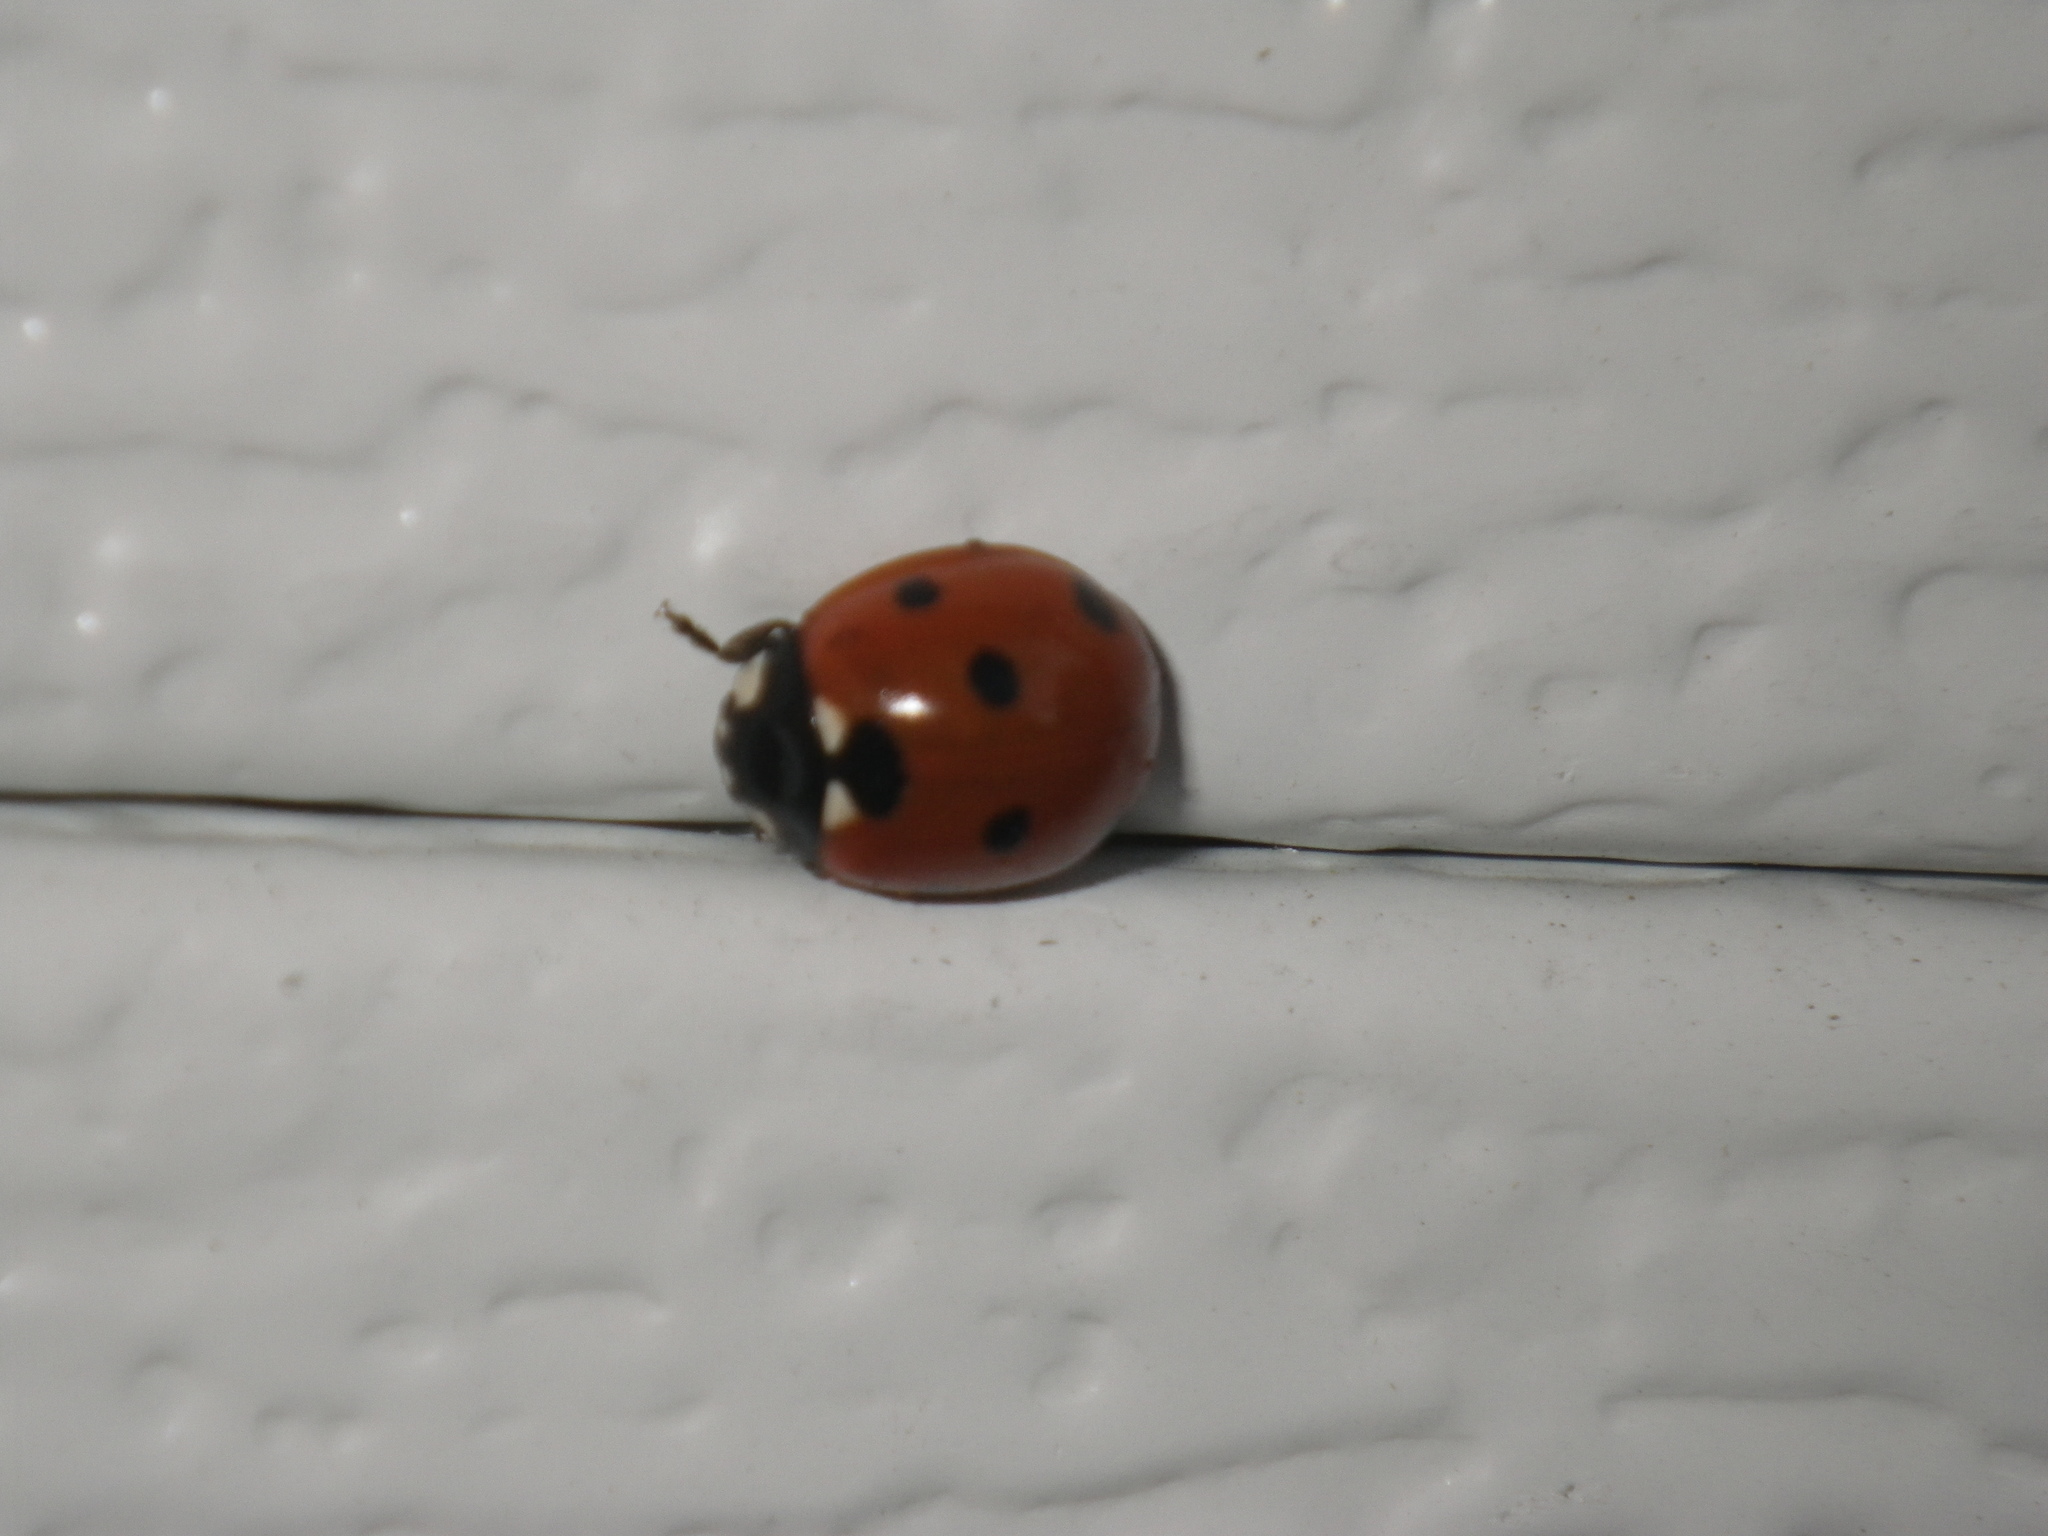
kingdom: Animalia
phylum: Arthropoda
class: Insecta
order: Coleoptera
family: Coccinellidae
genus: Coccinella
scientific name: Coccinella septempunctata
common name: Sevenspotted lady beetle
